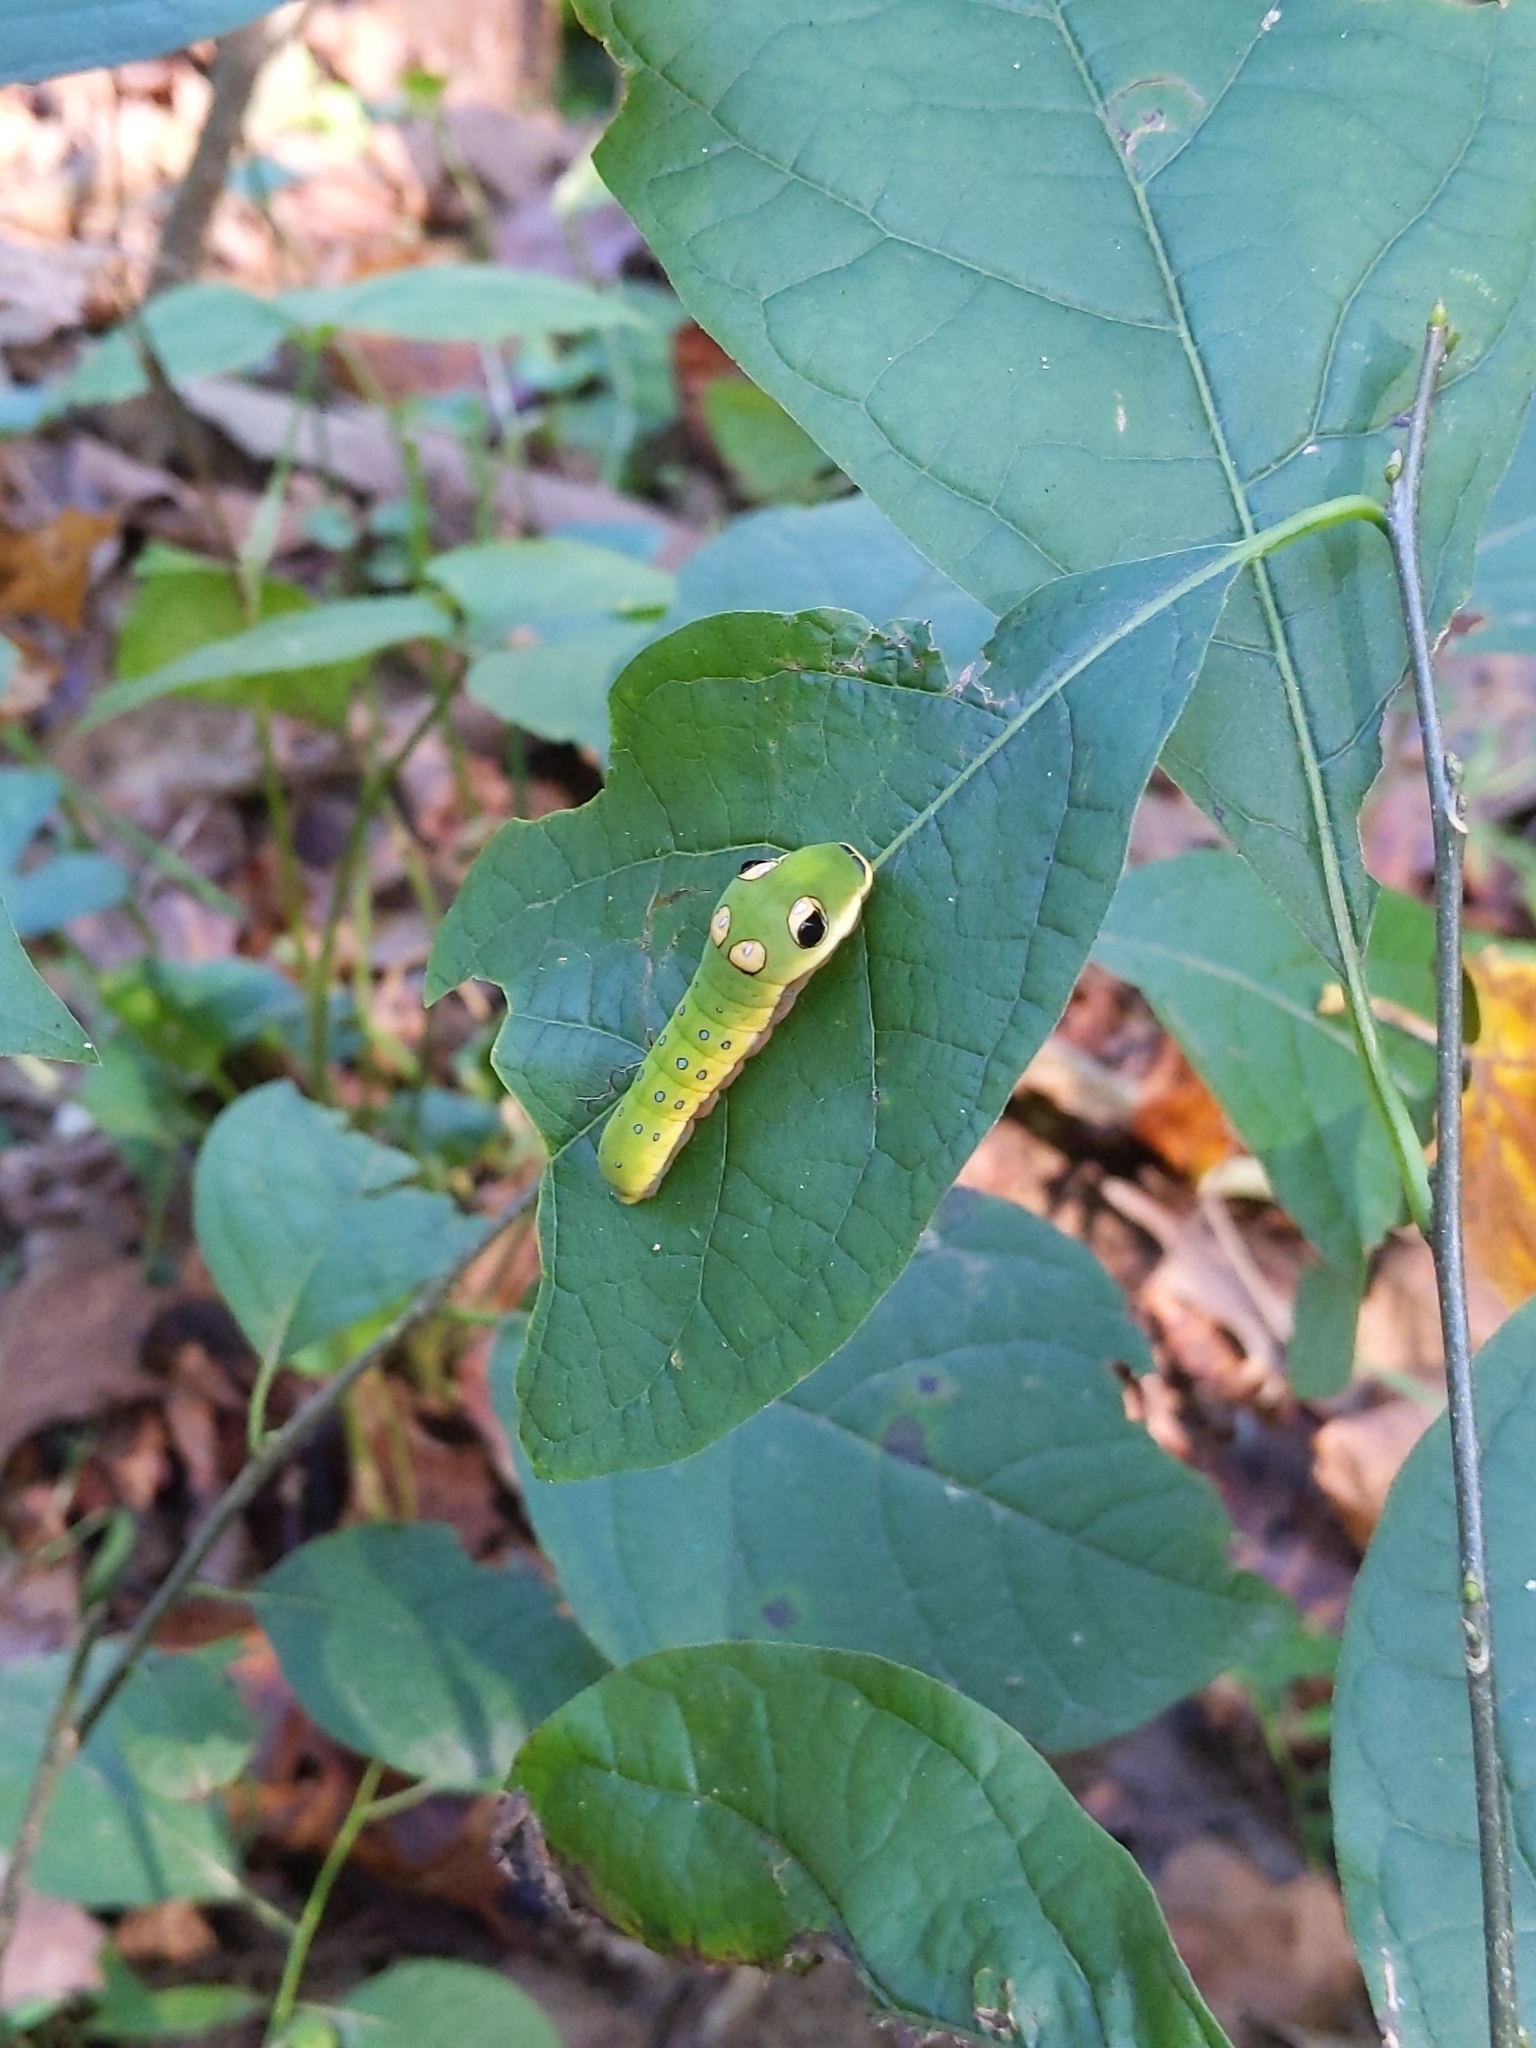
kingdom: Animalia
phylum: Arthropoda
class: Insecta
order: Lepidoptera
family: Papilionidae
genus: Papilio
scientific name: Papilio troilus
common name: Spicebush swallowtail
